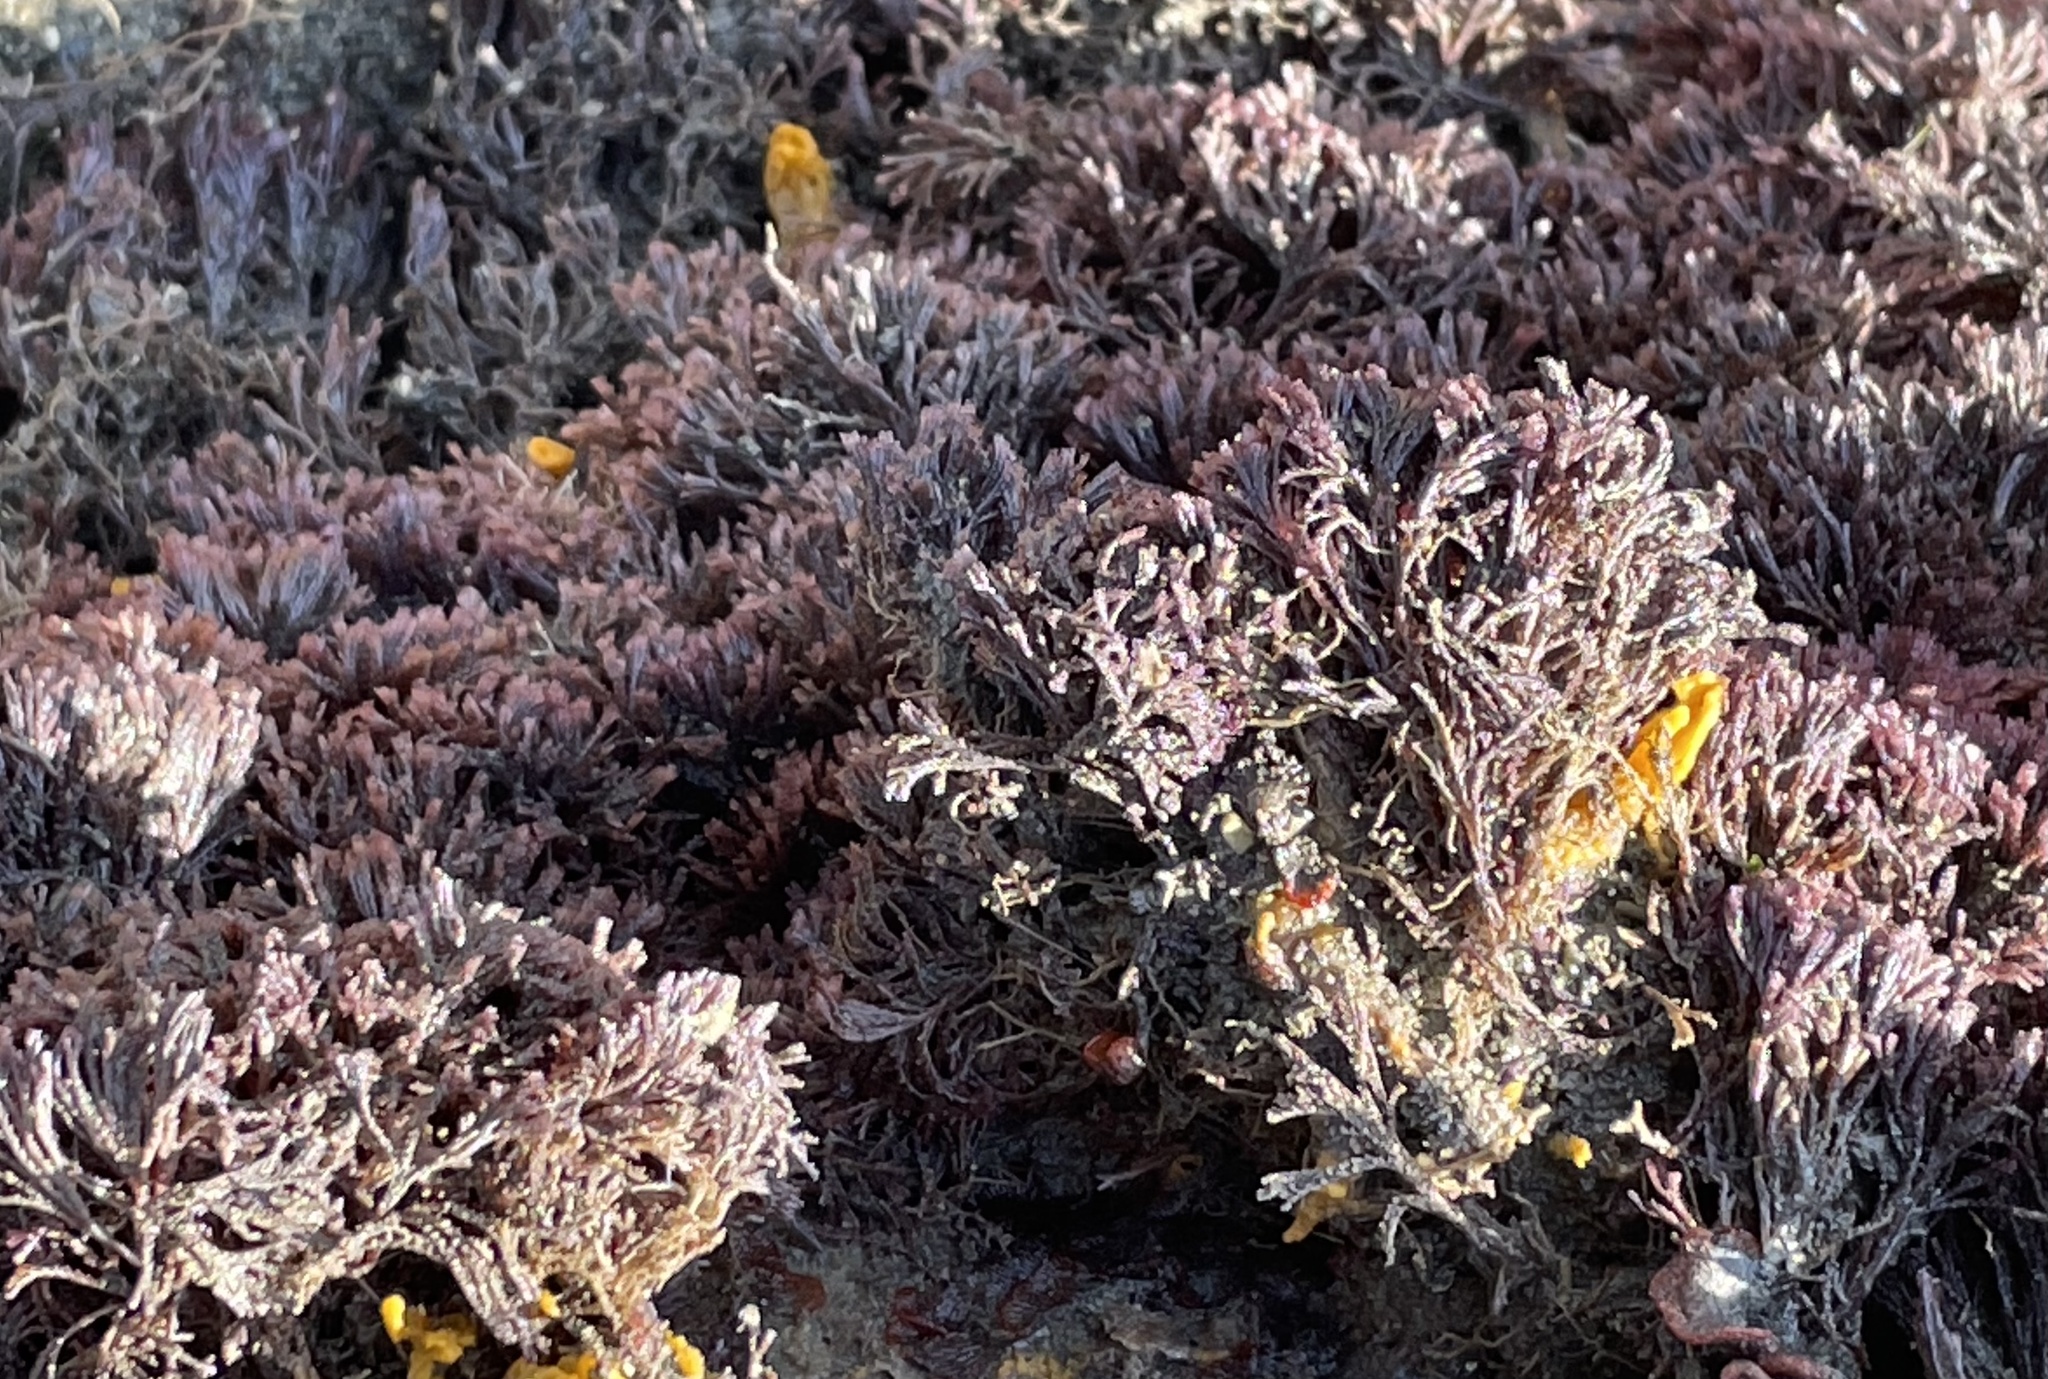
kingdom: Animalia
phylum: Bryozoa
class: Gymnolaemata
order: Cheilostomatida
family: Bugulidae
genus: Bugula
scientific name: Bugula neritina
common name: Brown bryozoan
